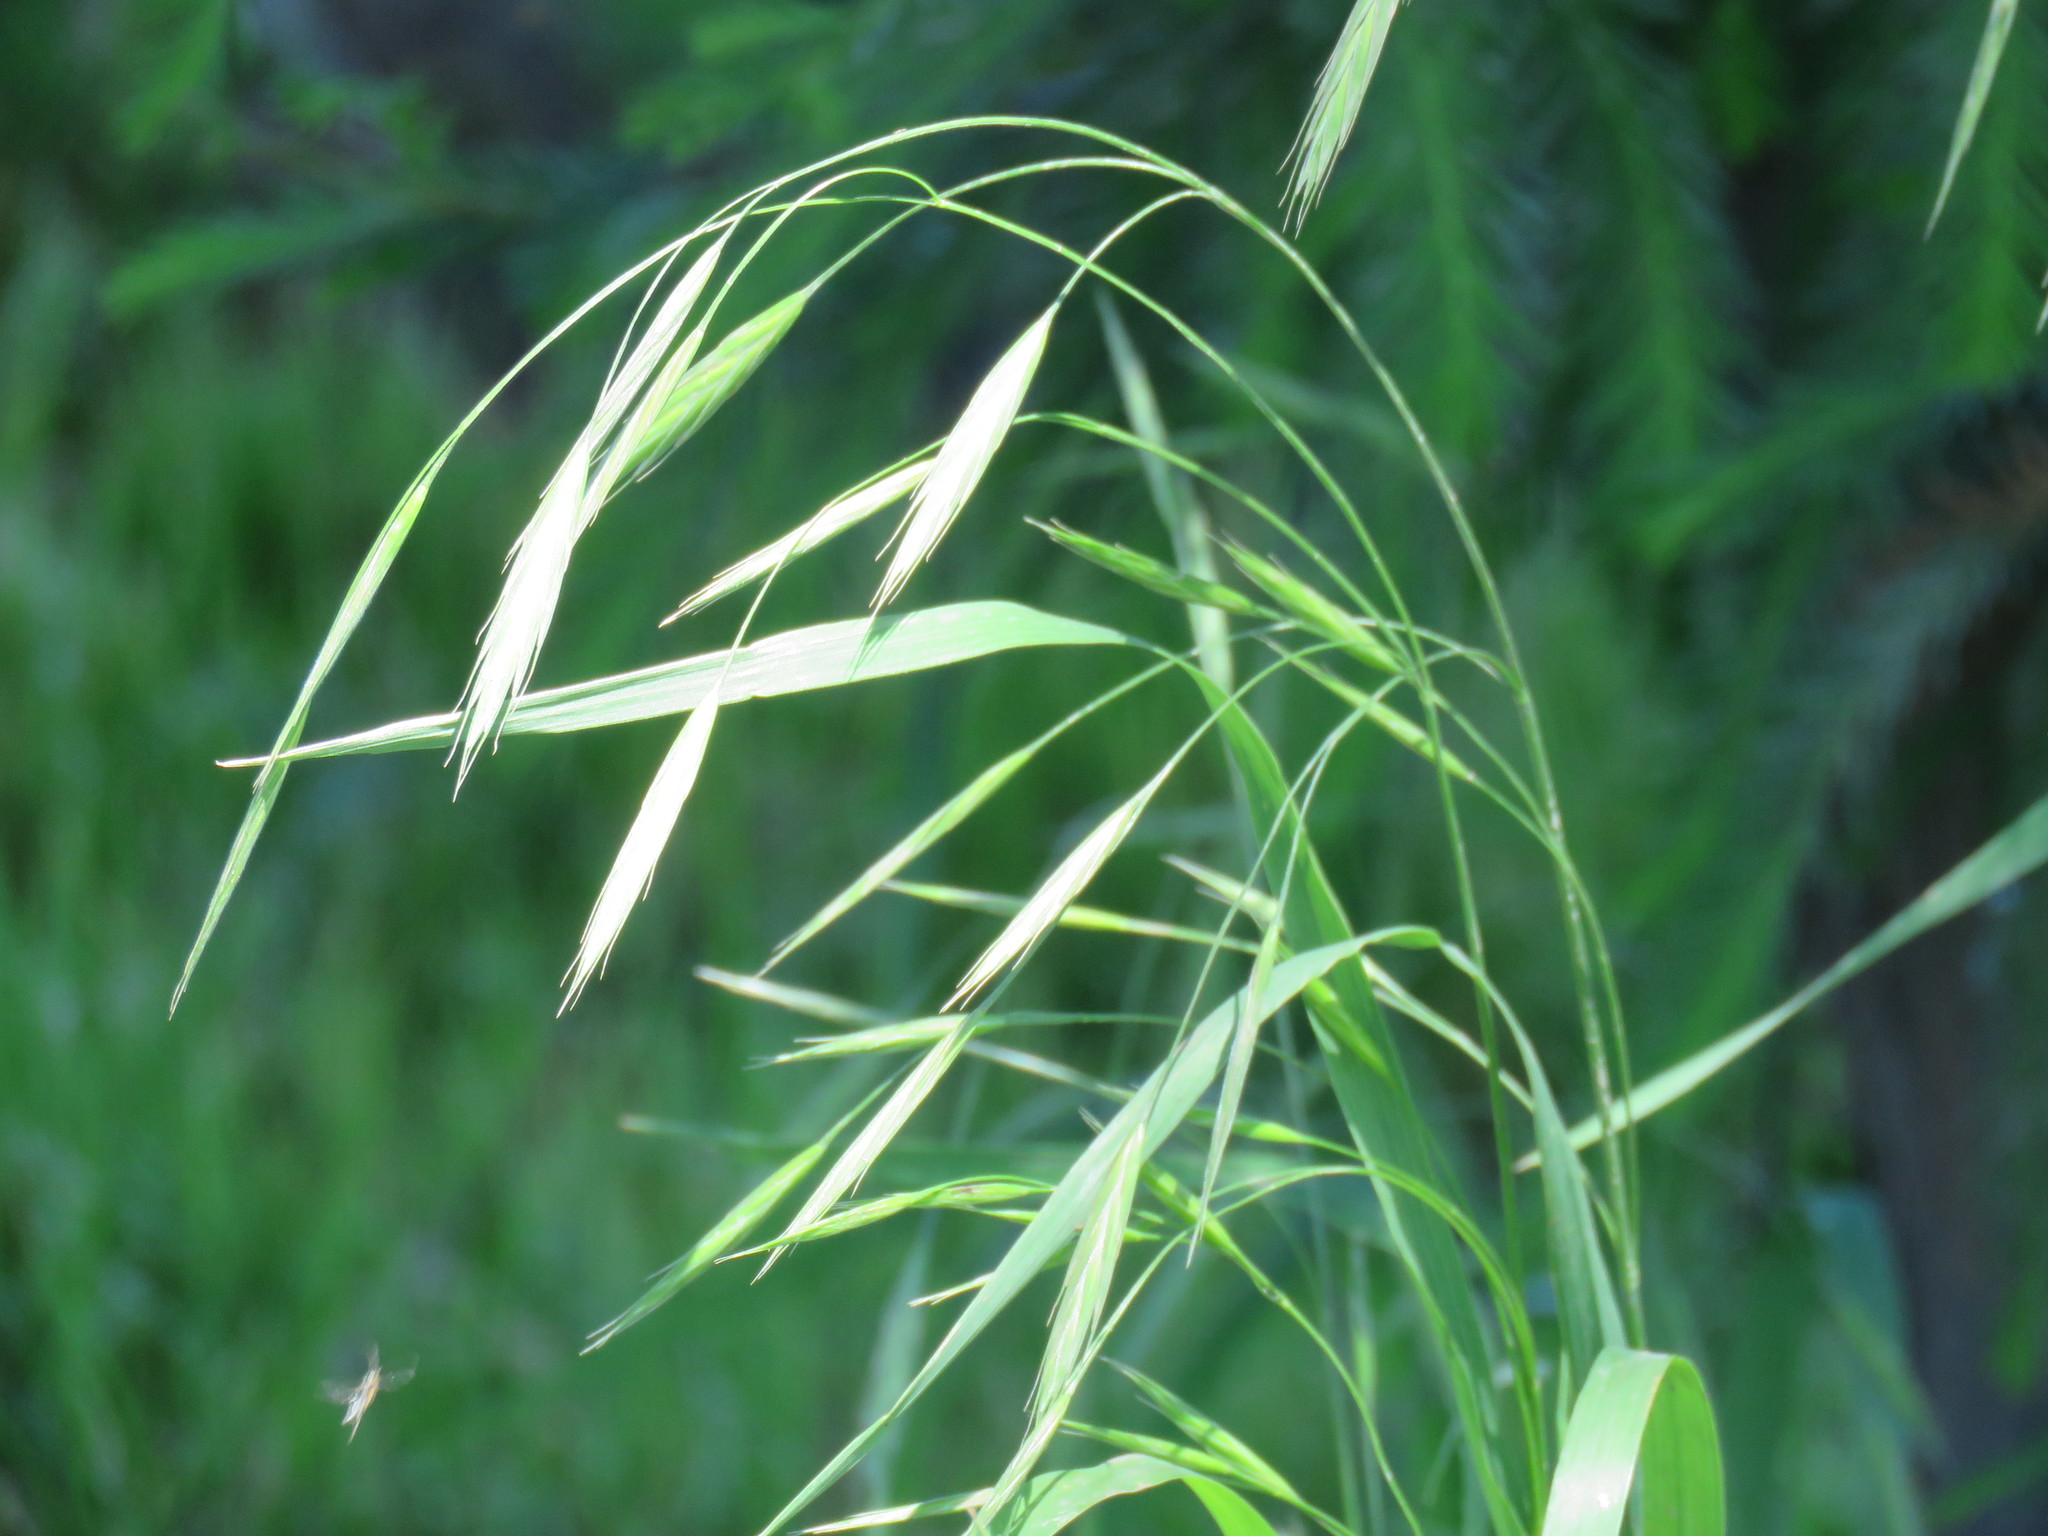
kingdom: Plantae
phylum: Tracheophyta
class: Liliopsida
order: Poales
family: Poaceae
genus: Bromus
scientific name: Bromus catharticus
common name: Rescuegrass
